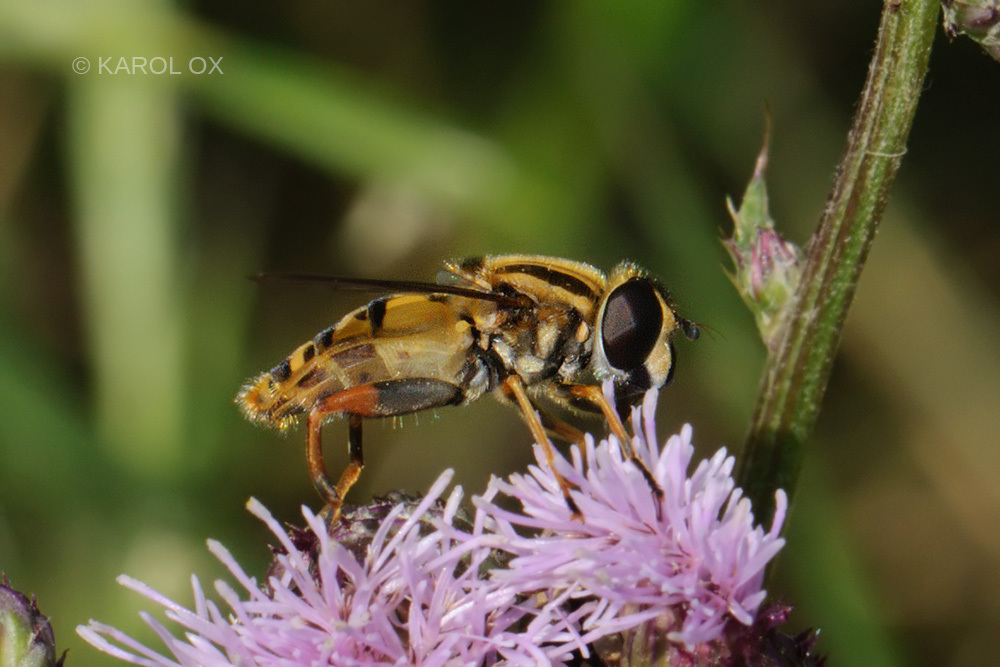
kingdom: Animalia
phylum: Arthropoda
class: Insecta
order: Diptera
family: Syrphidae
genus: Helophilus
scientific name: Helophilus pendulus
